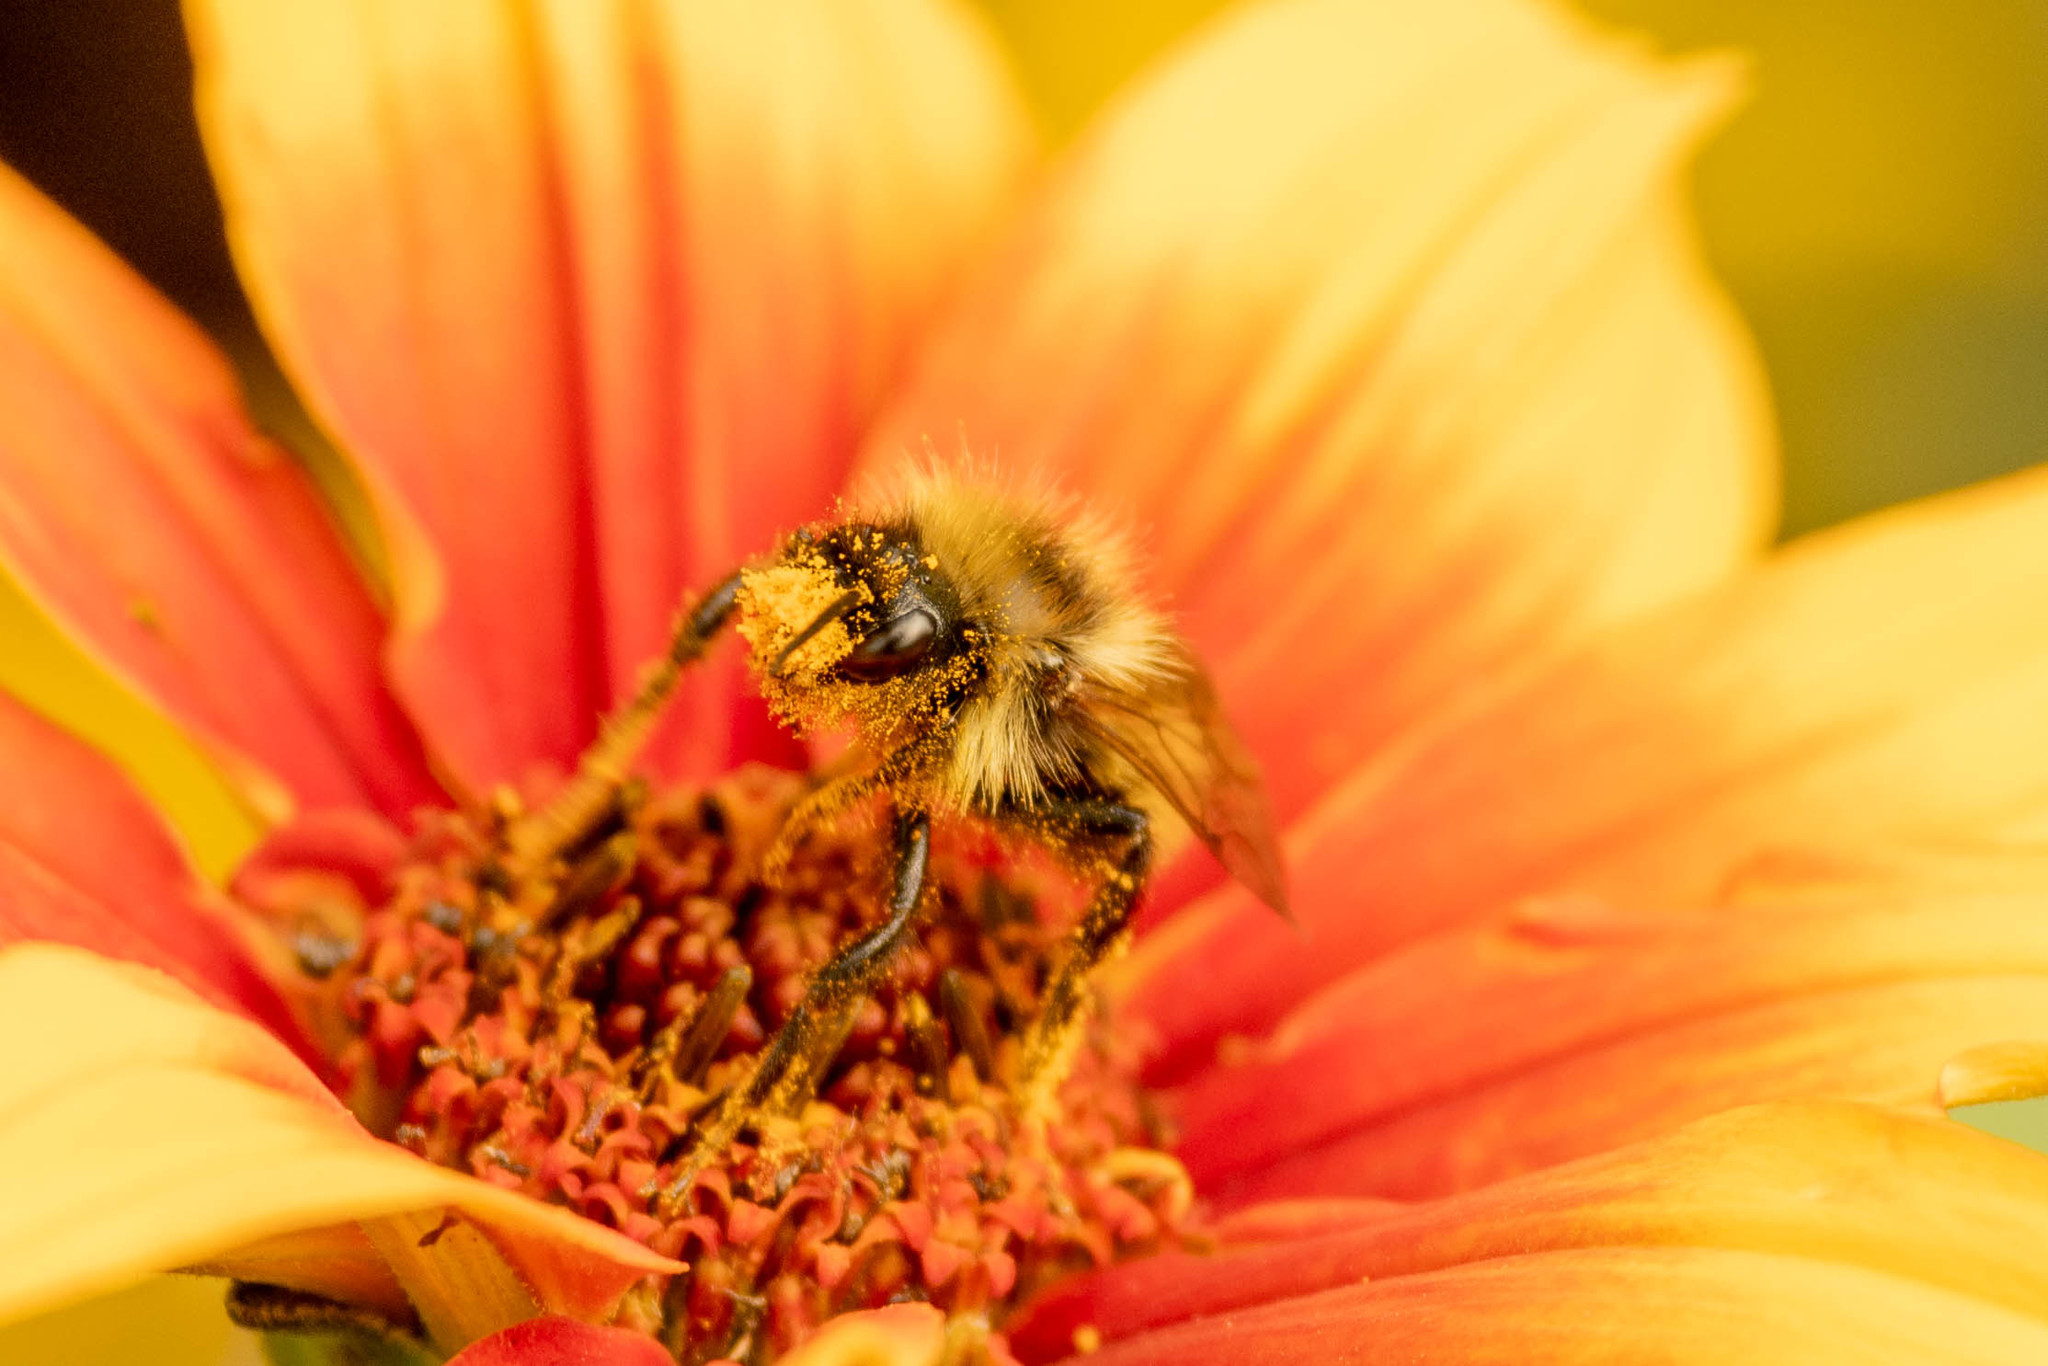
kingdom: Animalia
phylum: Arthropoda
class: Insecta
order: Hymenoptera
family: Apidae
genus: Bombus
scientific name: Bombus insularis
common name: Indiscriminate cuckoo bumble bee
